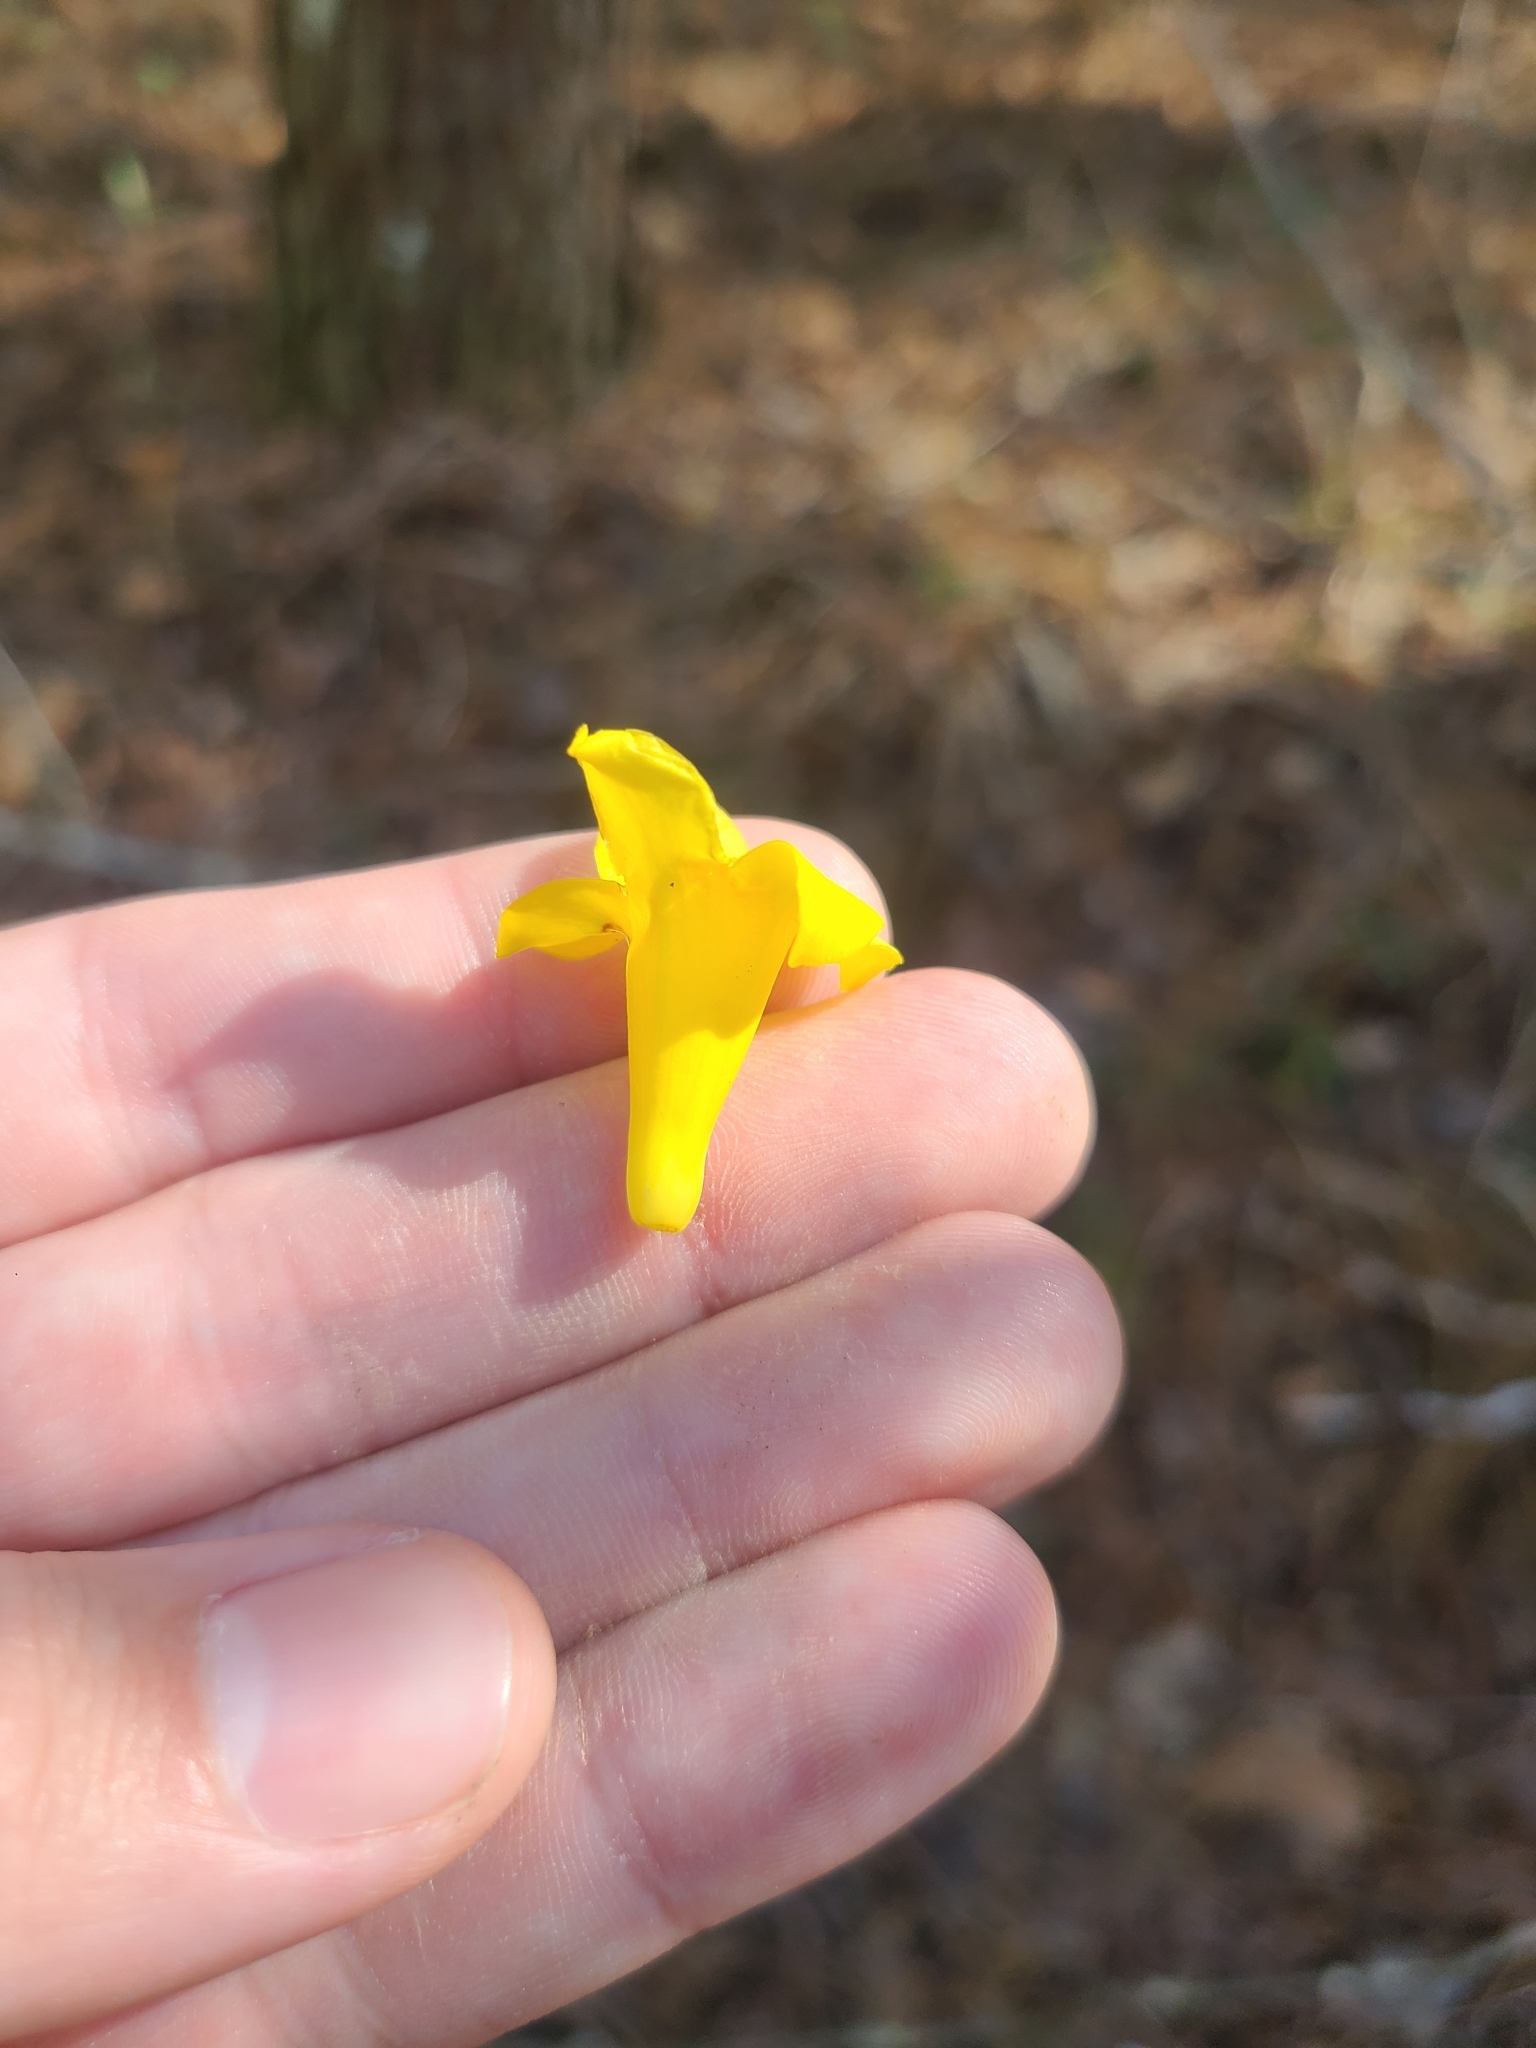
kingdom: Plantae
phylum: Tracheophyta
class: Magnoliopsida
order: Gentianales
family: Gelsemiaceae
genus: Gelsemium
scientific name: Gelsemium sempervirens
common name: Carolina-jasmine
